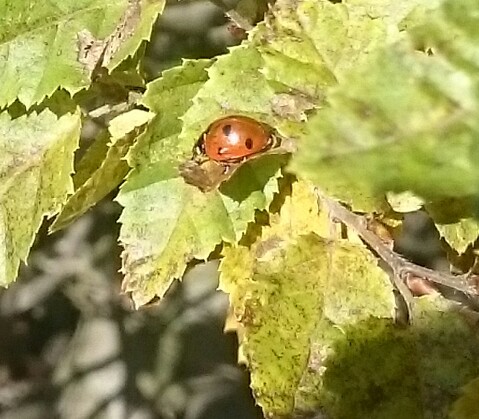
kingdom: Animalia
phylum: Arthropoda
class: Insecta
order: Coleoptera
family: Coccinellidae
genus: Coccinella
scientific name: Coccinella septempunctata
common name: Sevenspotted lady beetle
